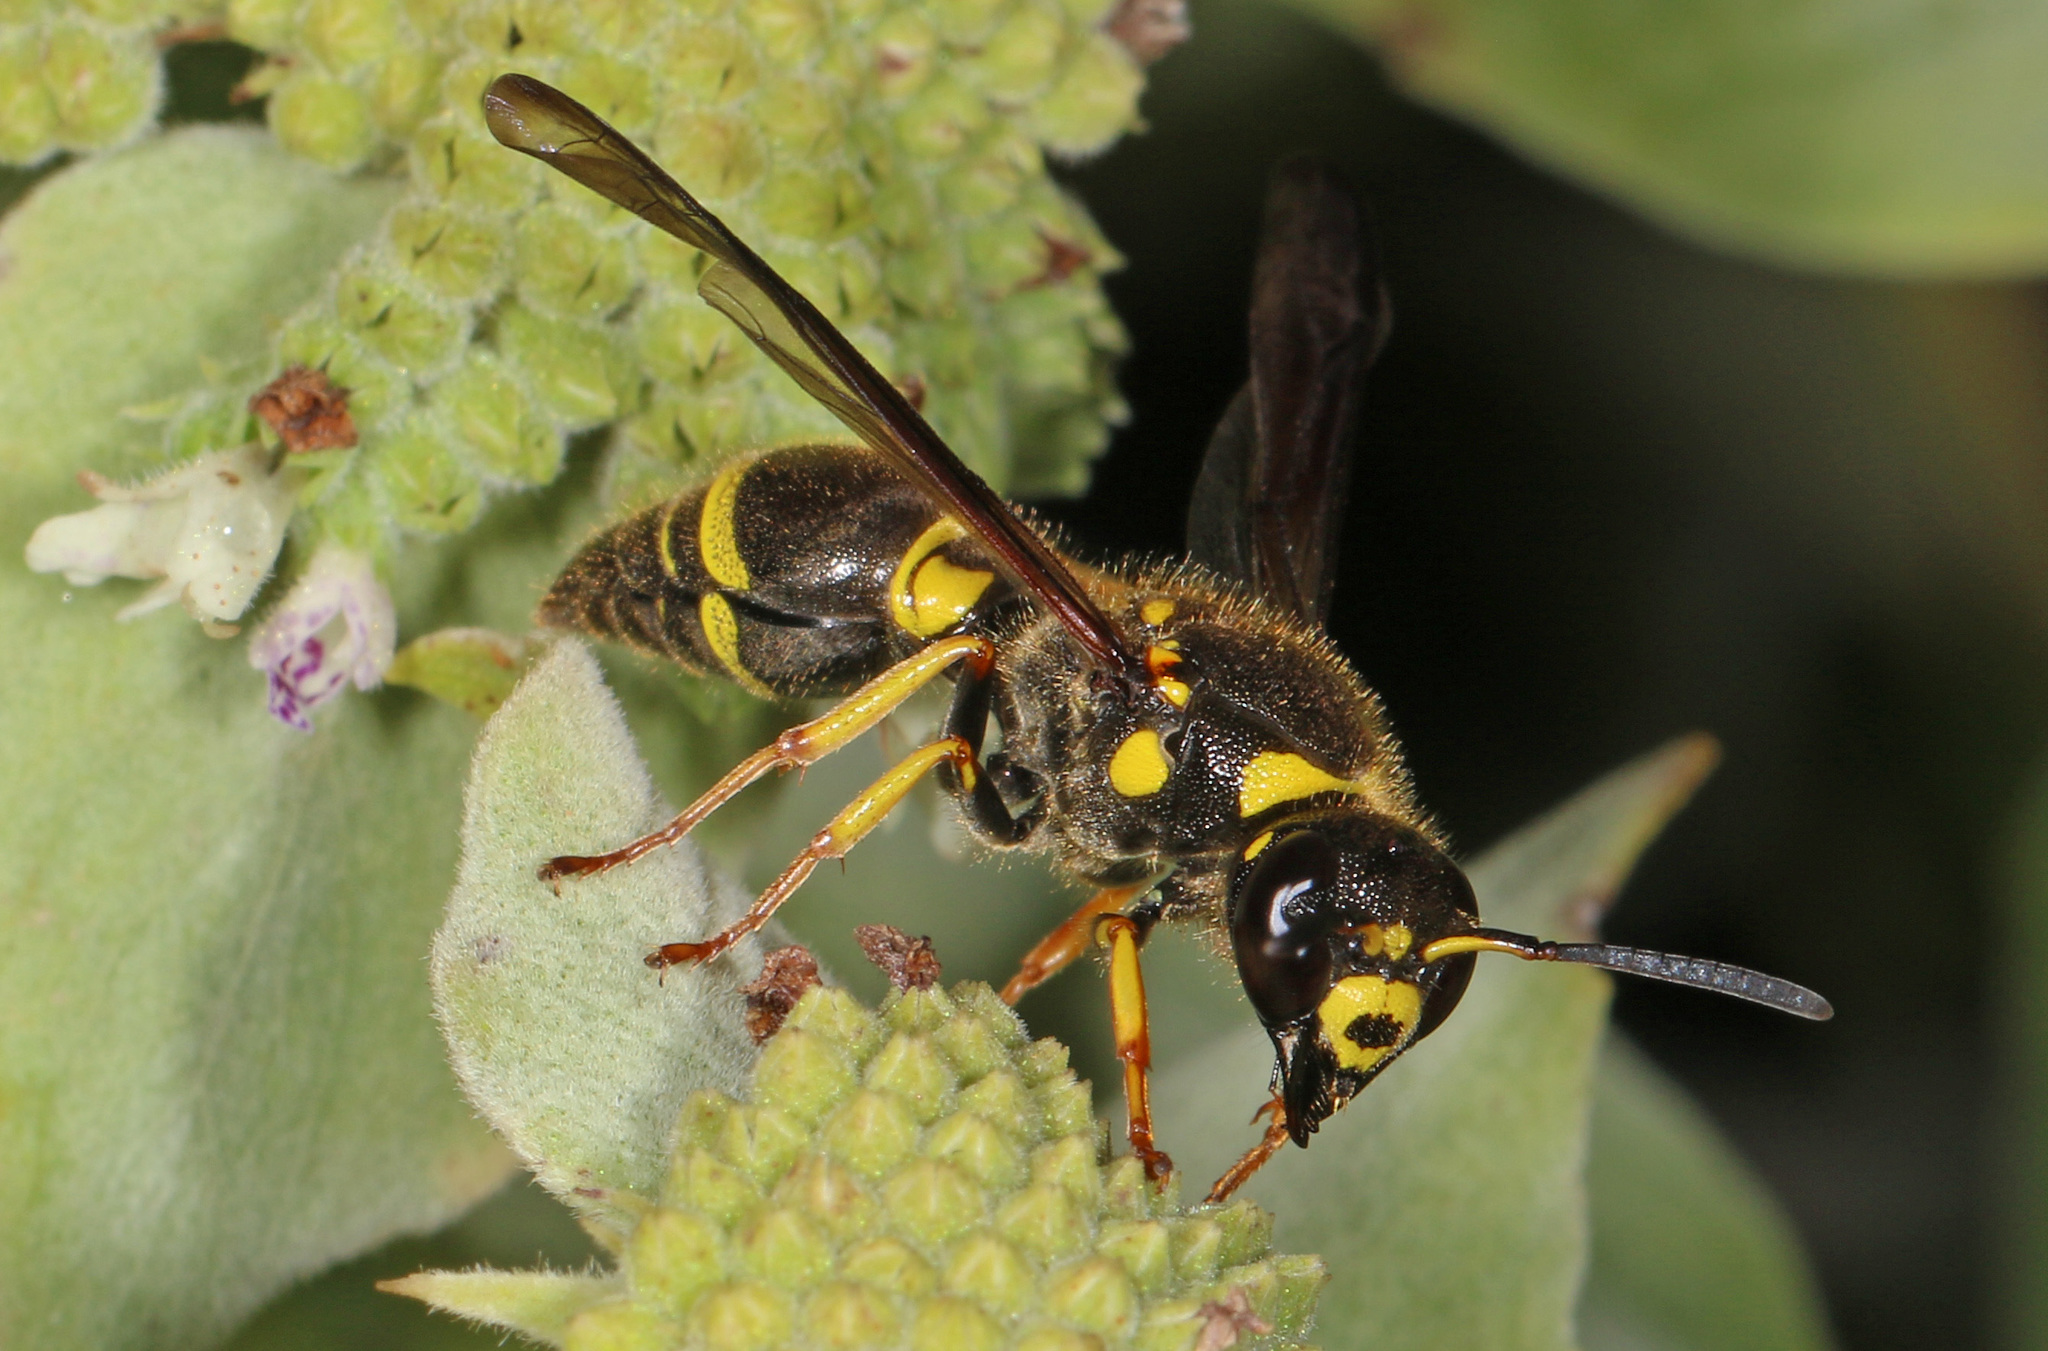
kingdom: Animalia
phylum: Arthropoda
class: Insecta
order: Hymenoptera
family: Vespidae
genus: Ancistrocerus
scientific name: Ancistrocerus campestris
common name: Smiling mason wasp
